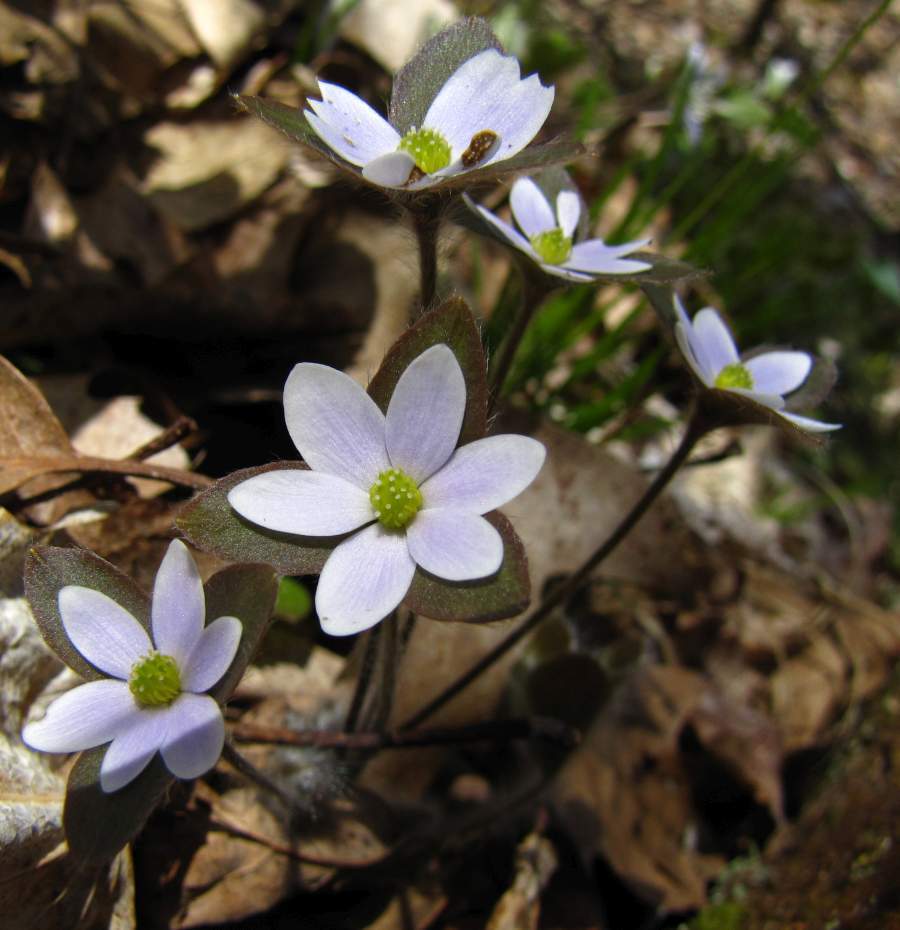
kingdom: Plantae
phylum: Tracheophyta
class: Magnoliopsida
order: Ranunculales
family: Ranunculaceae
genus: Hepatica
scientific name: Hepatica acutiloba
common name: Sharp-lobed hepatica
